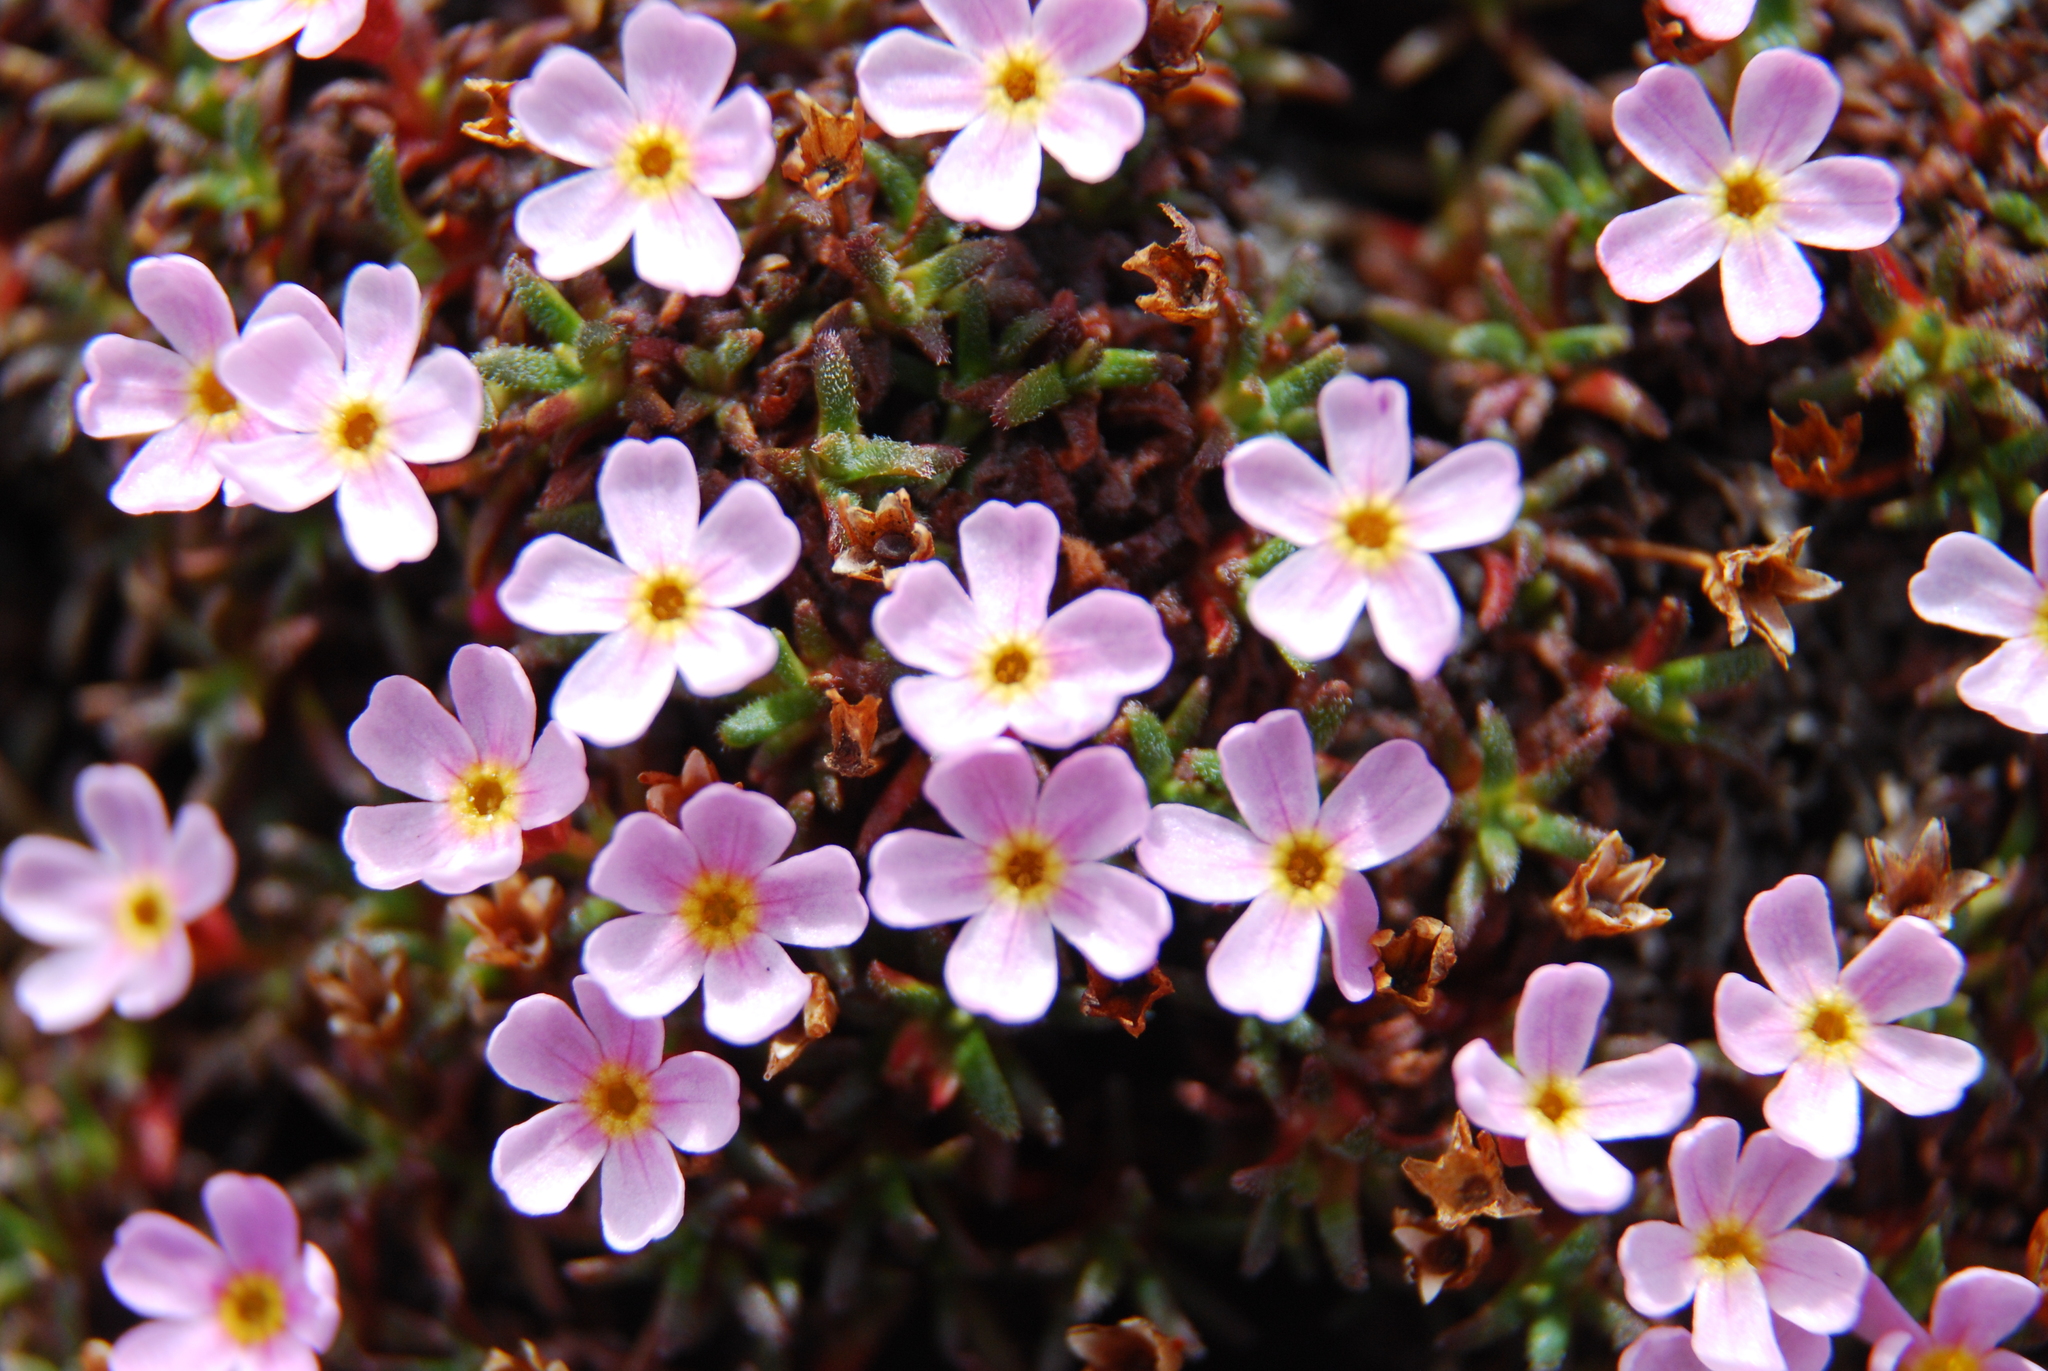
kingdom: Plantae
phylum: Tracheophyta
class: Magnoliopsida
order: Ericales
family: Primulaceae
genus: Androsace
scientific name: Androsace ochotensis
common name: Alaska dwarf-primrose
